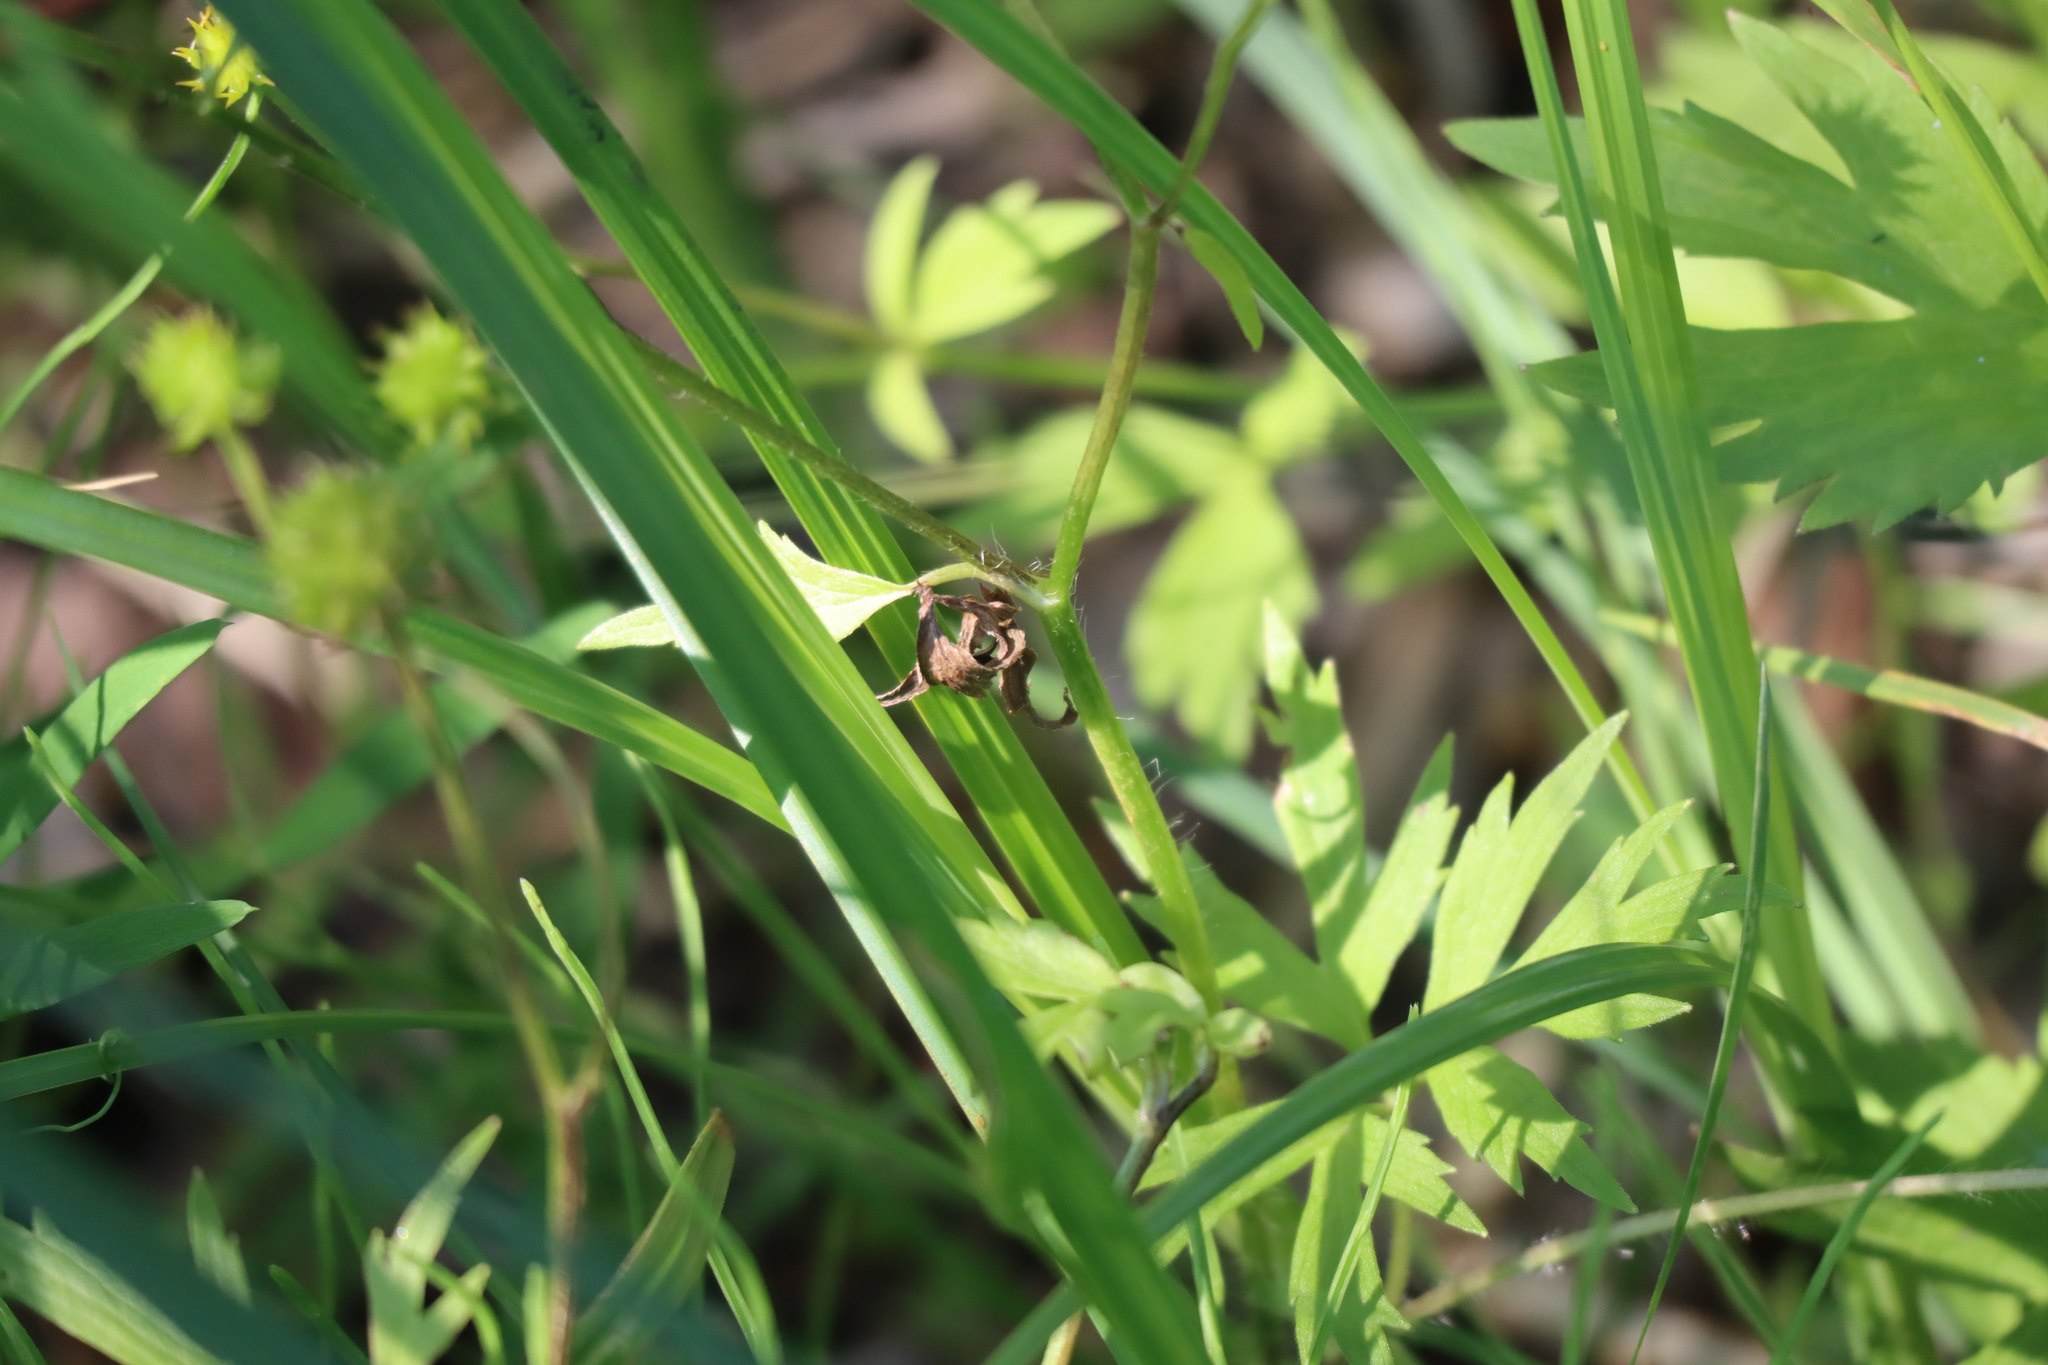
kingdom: Plantae
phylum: Tracheophyta
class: Magnoliopsida
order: Ranunculales
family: Ranunculaceae
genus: Ranunculus
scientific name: Ranunculus acris
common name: Meadow buttercup
